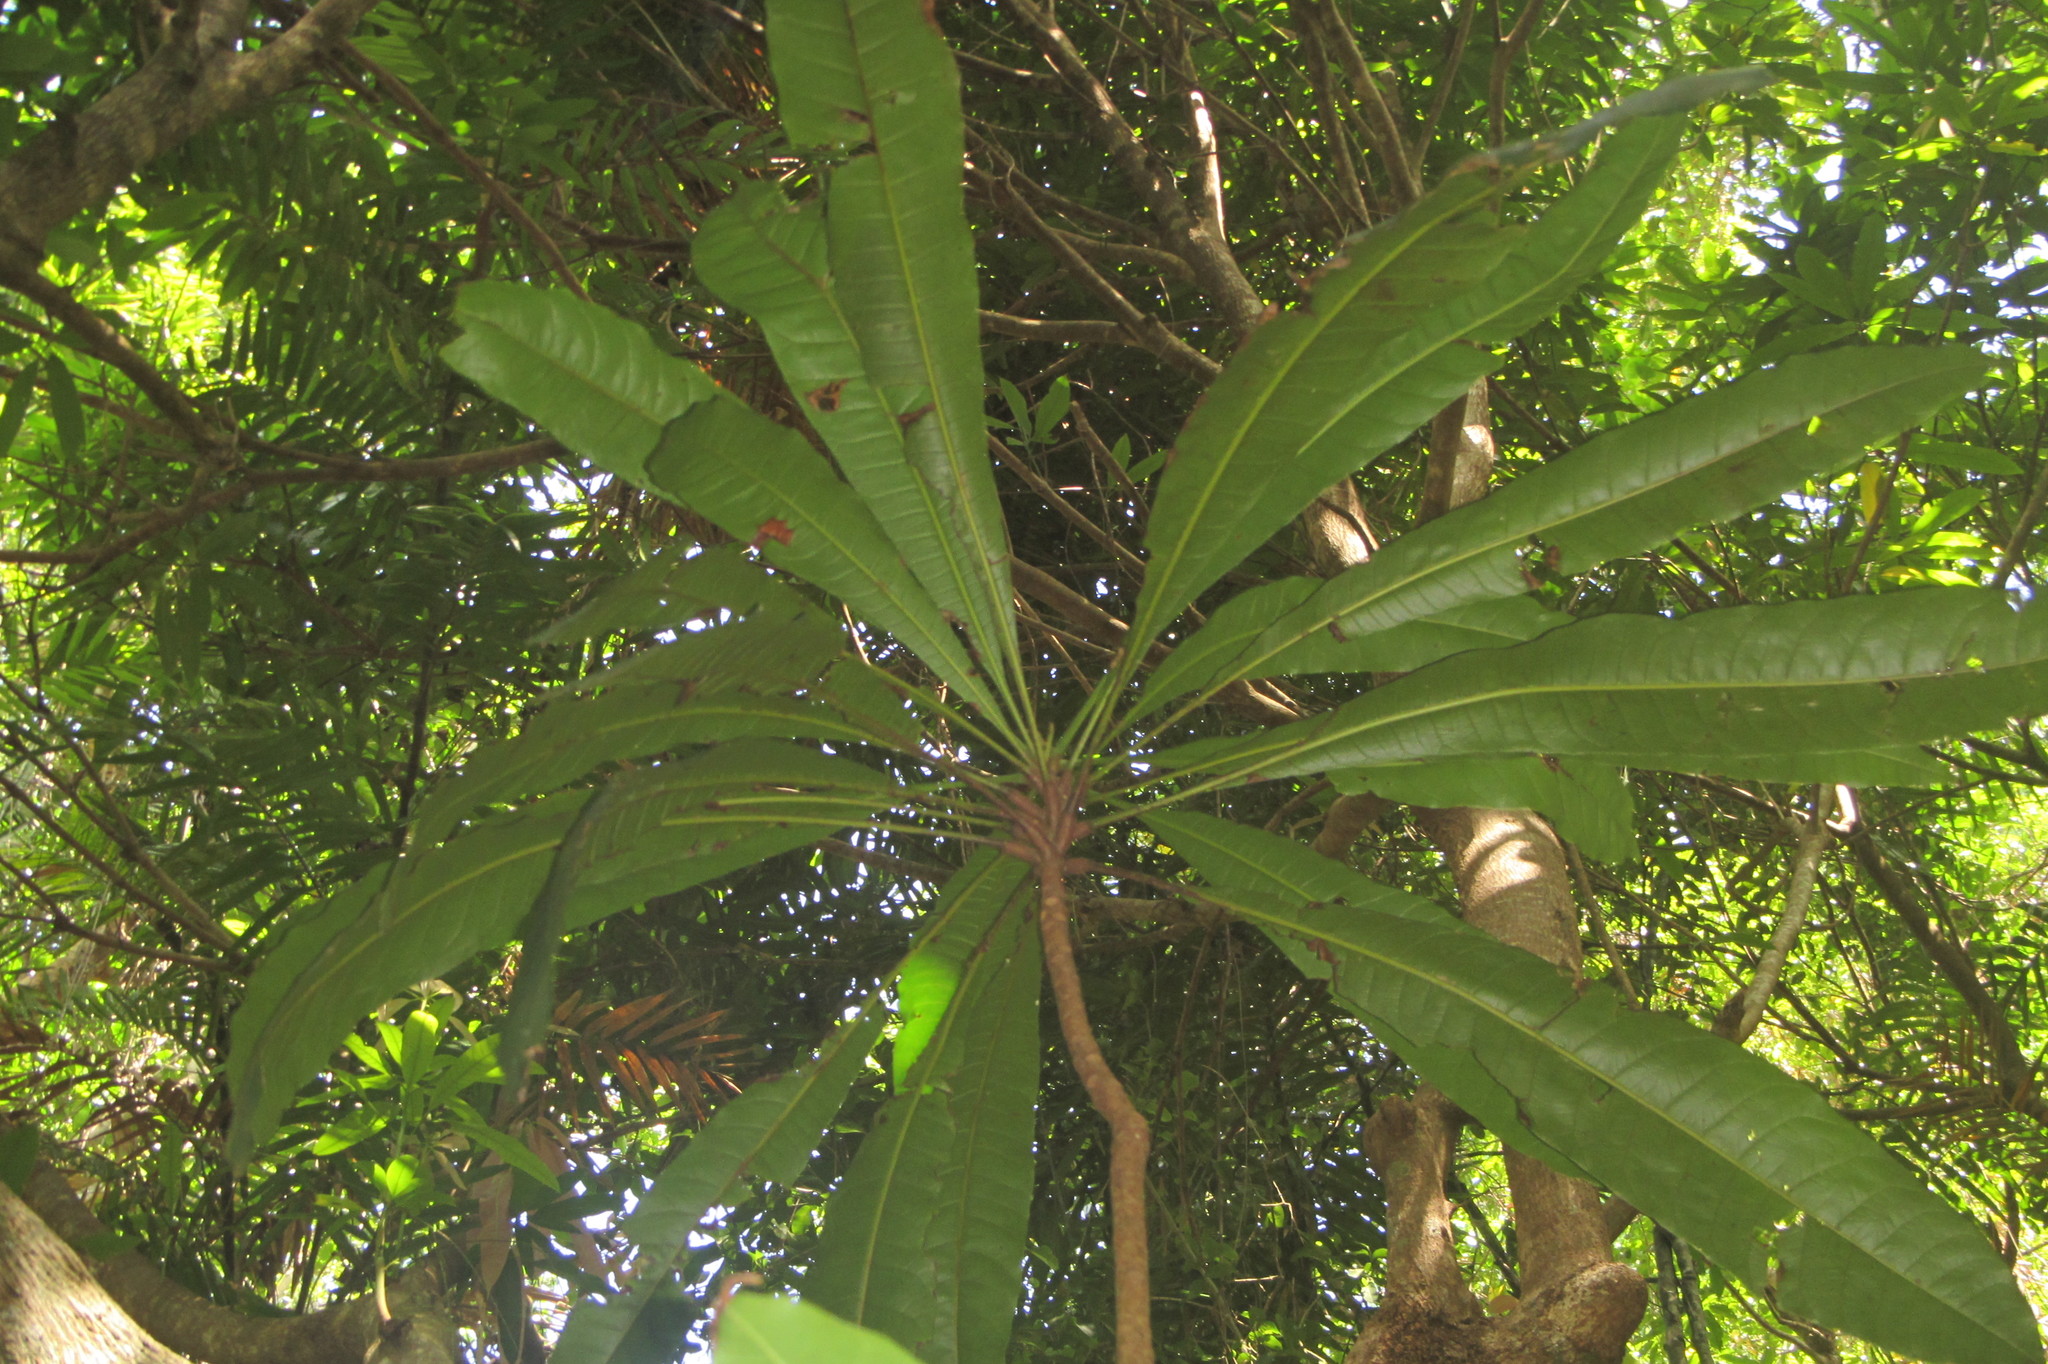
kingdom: Plantae
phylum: Tracheophyta
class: Magnoliopsida
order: Sapindales
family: Anacardiaceae
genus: Buchanania
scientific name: Buchanania mangoides
